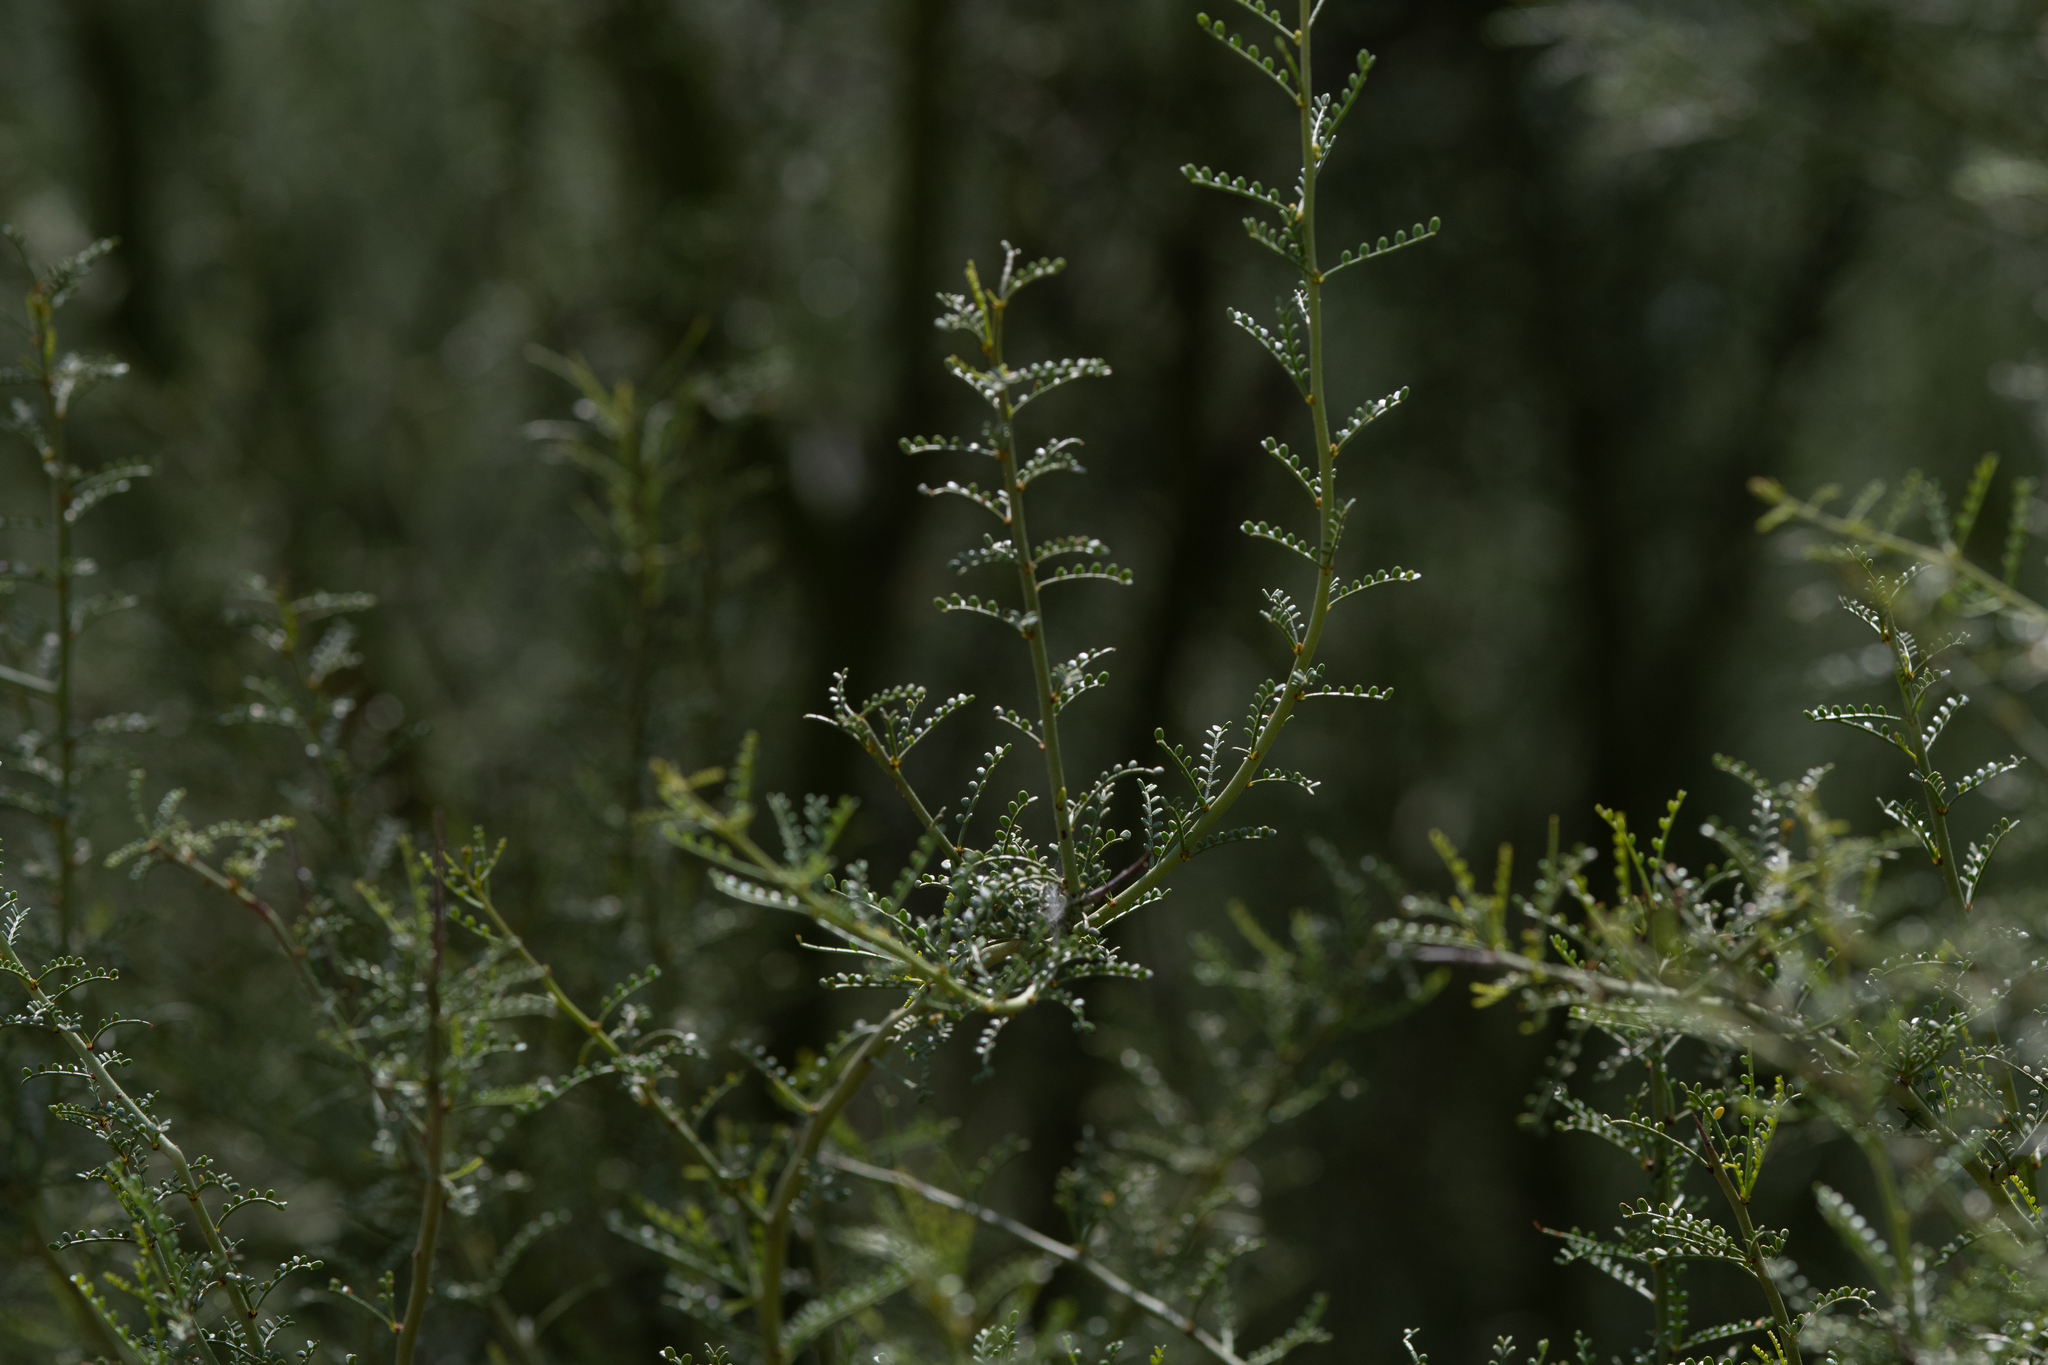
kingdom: Plantae
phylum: Tracheophyta
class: Magnoliopsida
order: Fabales
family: Fabaceae
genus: Parkinsonia
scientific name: Parkinsonia microphylla
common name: Yellow paloverde
